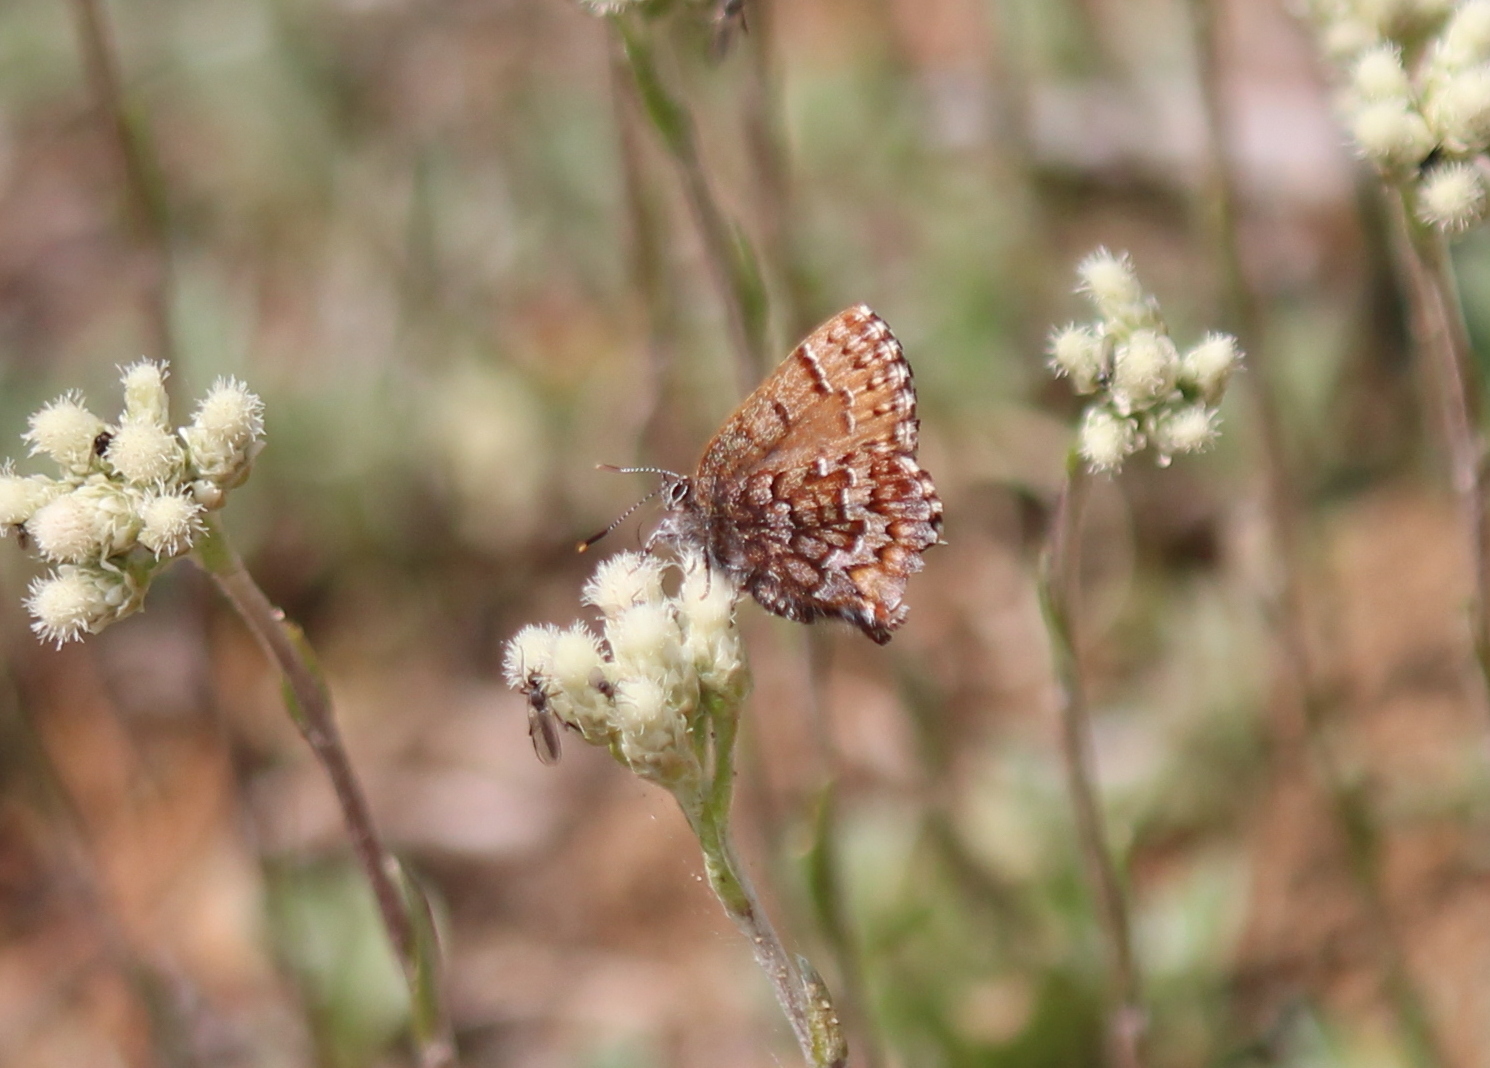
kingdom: Animalia
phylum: Arthropoda
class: Insecta
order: Lepidoptera
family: Lycaenidae
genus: Incisalia
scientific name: Incisalia niphon
